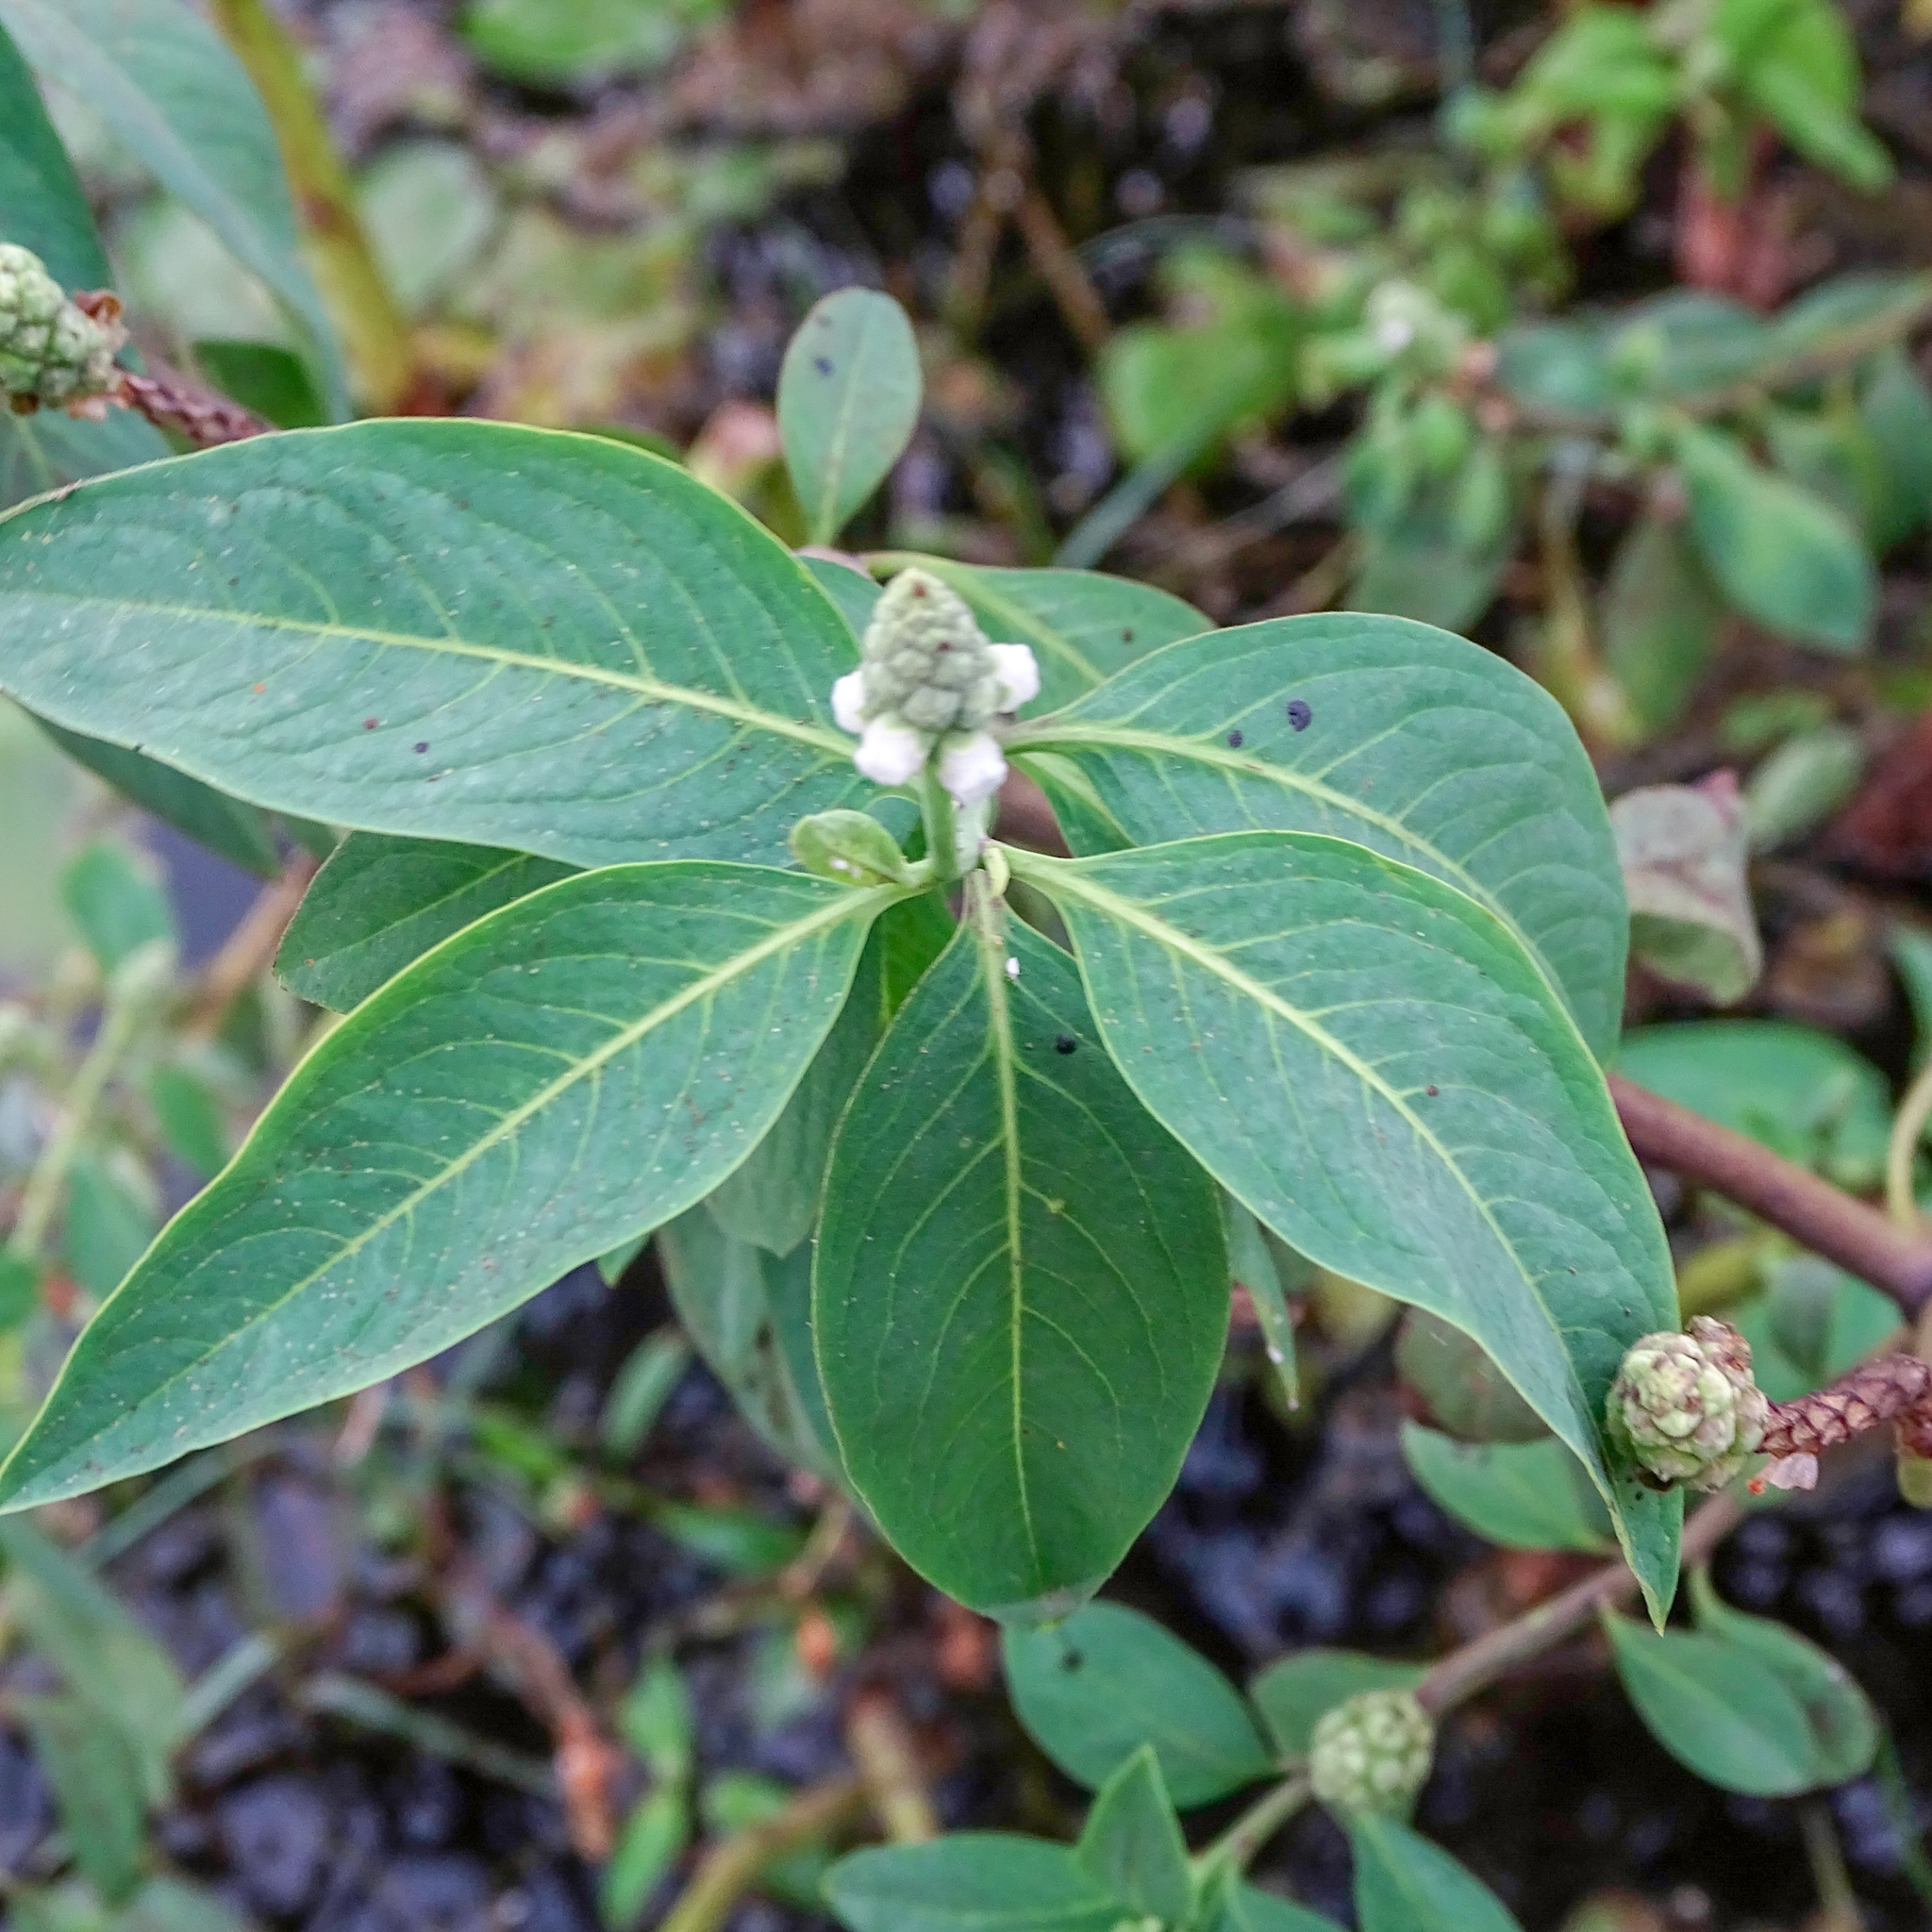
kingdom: Plantae
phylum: Tracheophyta
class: Magnoliopsida
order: Solanales
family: Sphenocleaceae
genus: Sphenoclea
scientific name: Sphenoclea zeylanica
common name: Chickenspike
